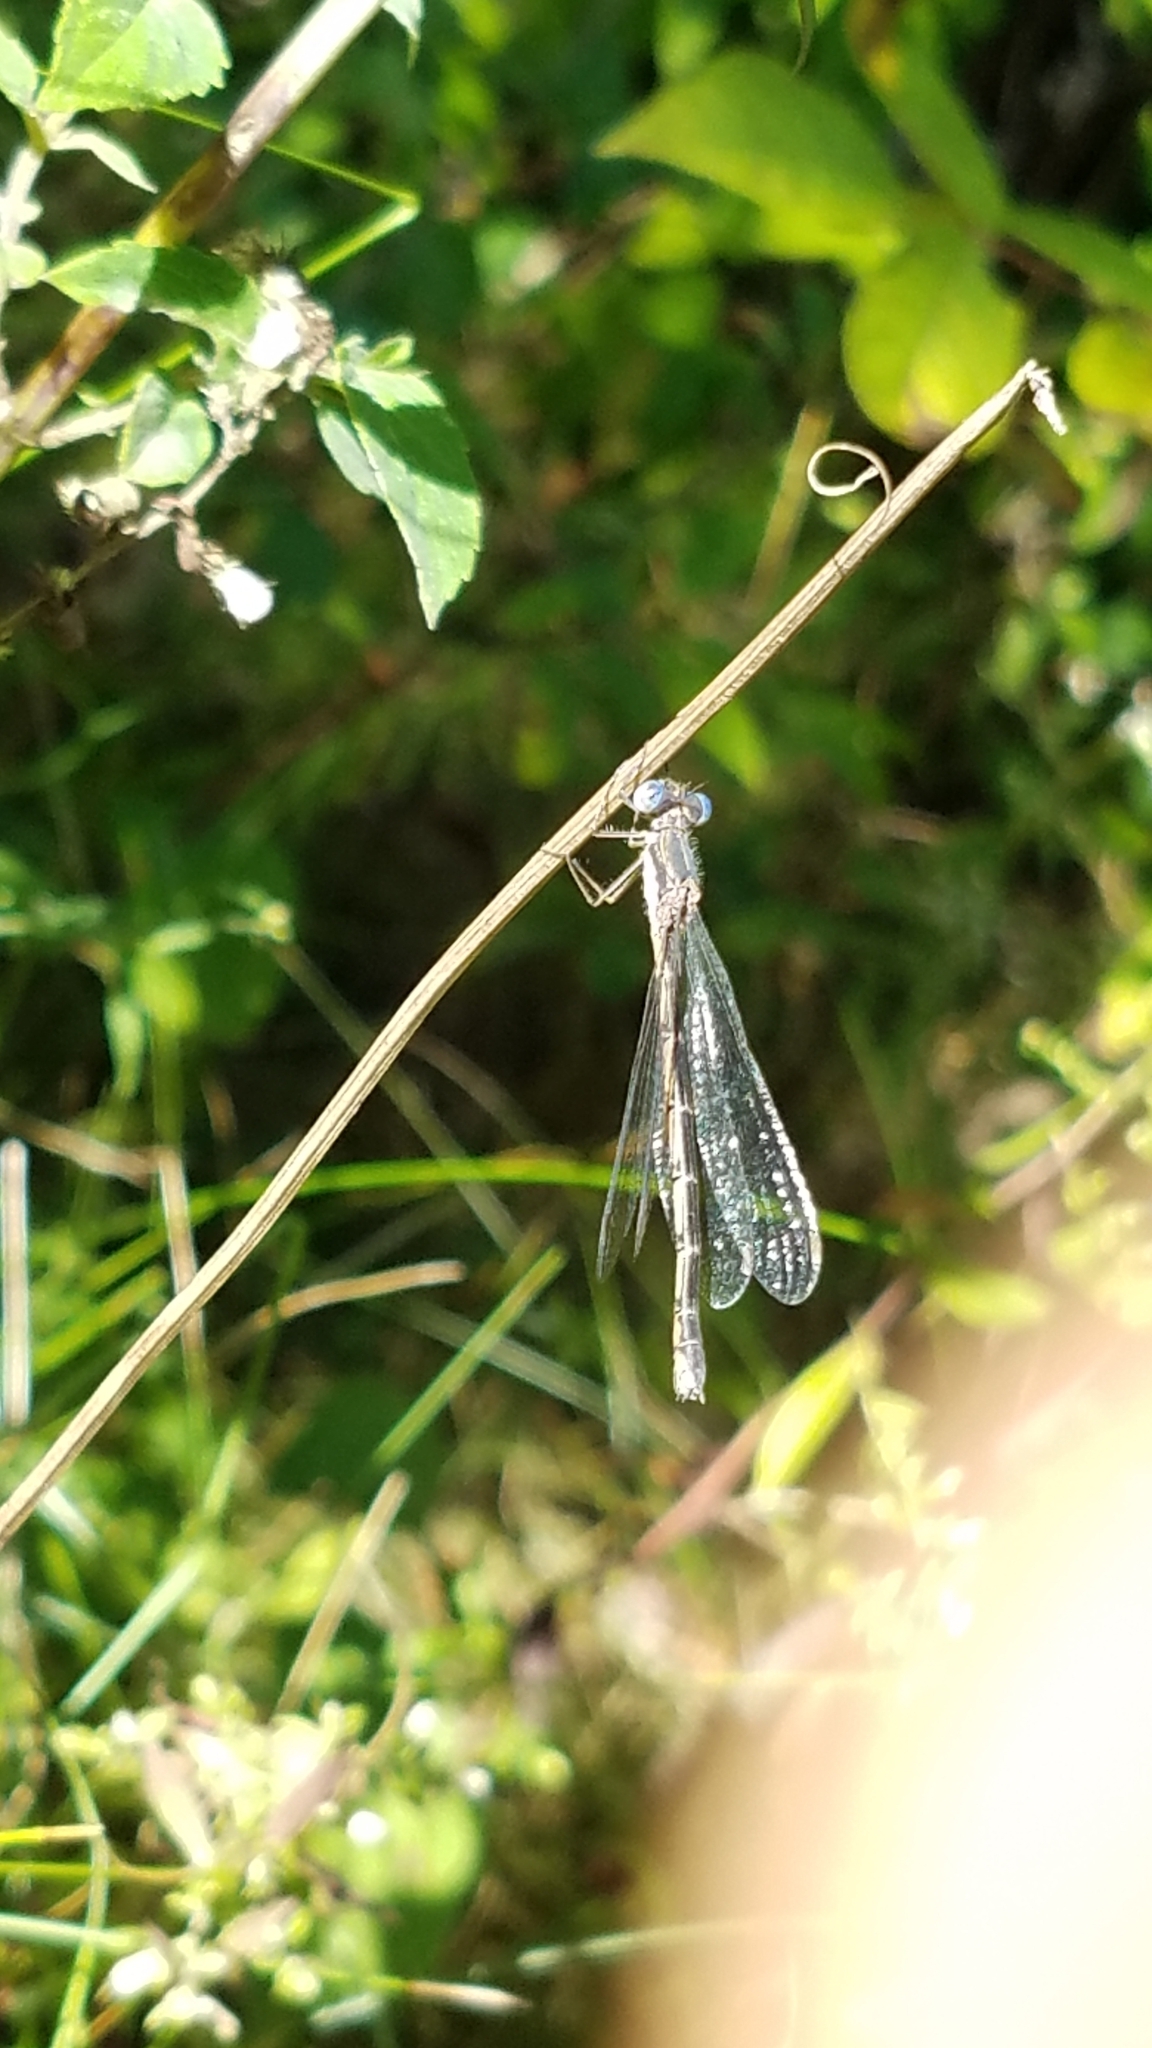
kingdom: Animalia
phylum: Arthropoda
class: Insecta
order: Odonata
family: Lestidae
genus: Lestes
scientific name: Lestes congener
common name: Spotted spreadwing
